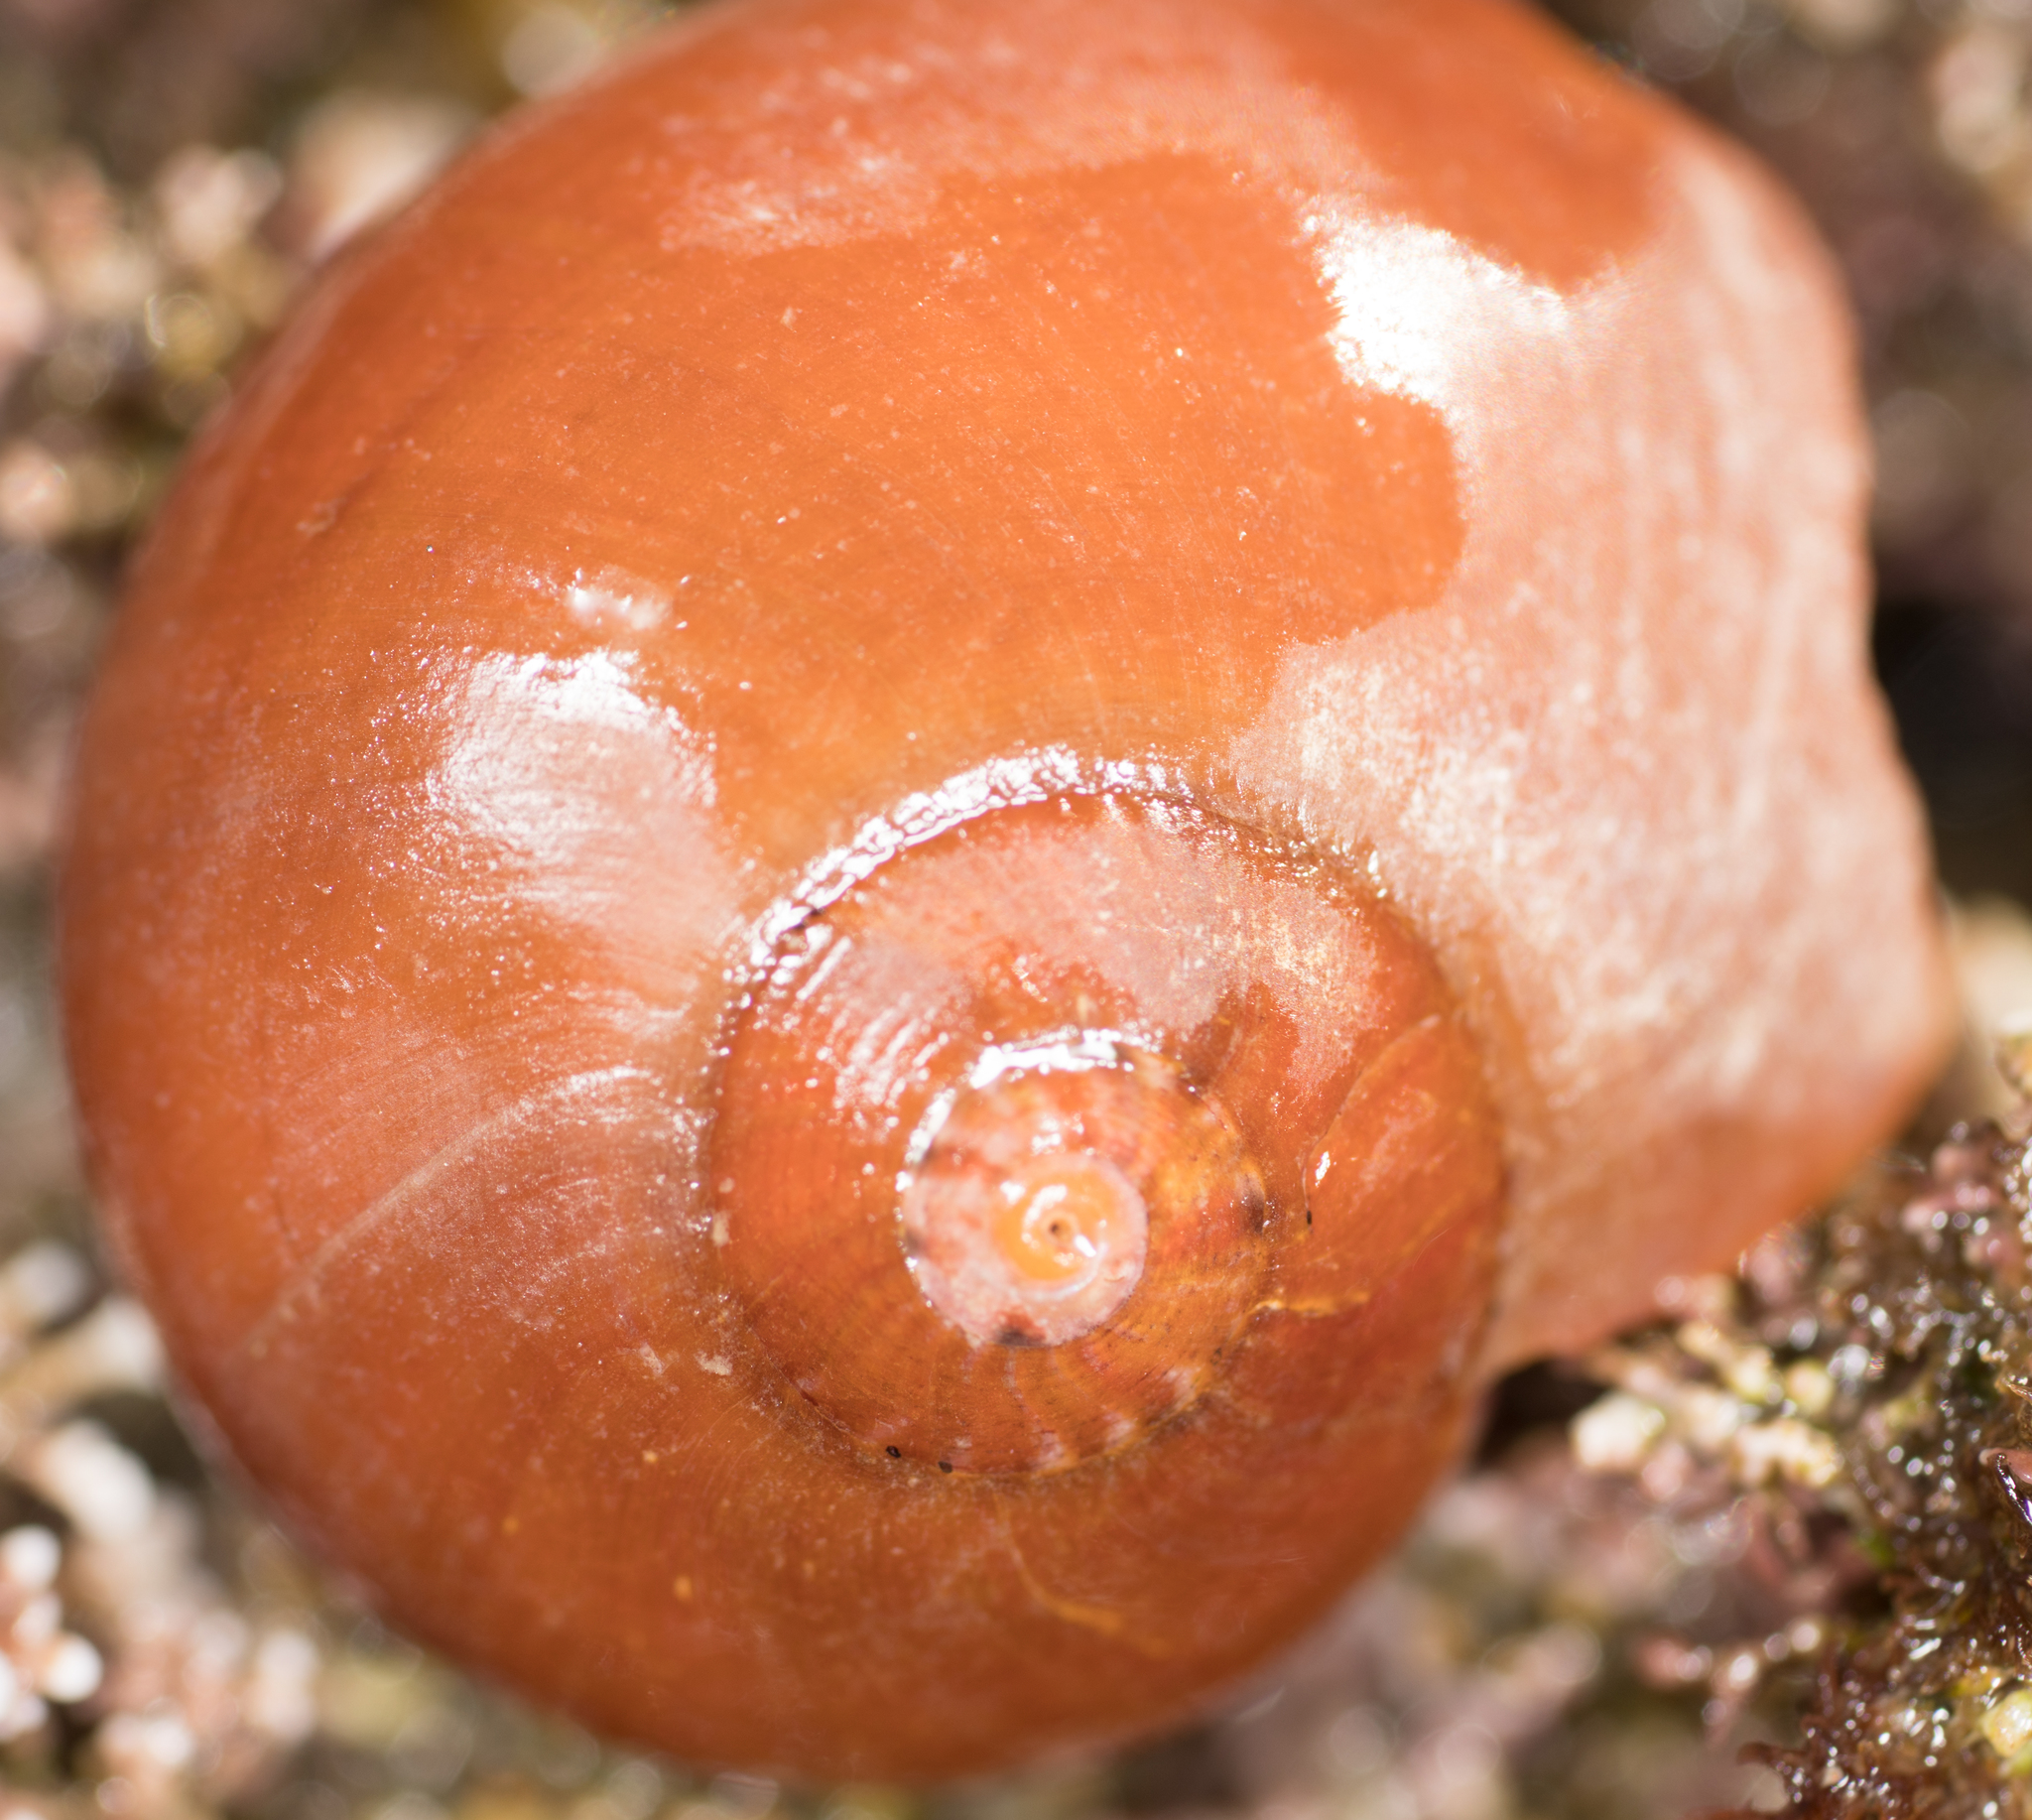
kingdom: Animalia
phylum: Mollusca
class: Gastropoda
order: Trochida
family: Tegulidae
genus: Norrisia
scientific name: Norrisia norrisii
